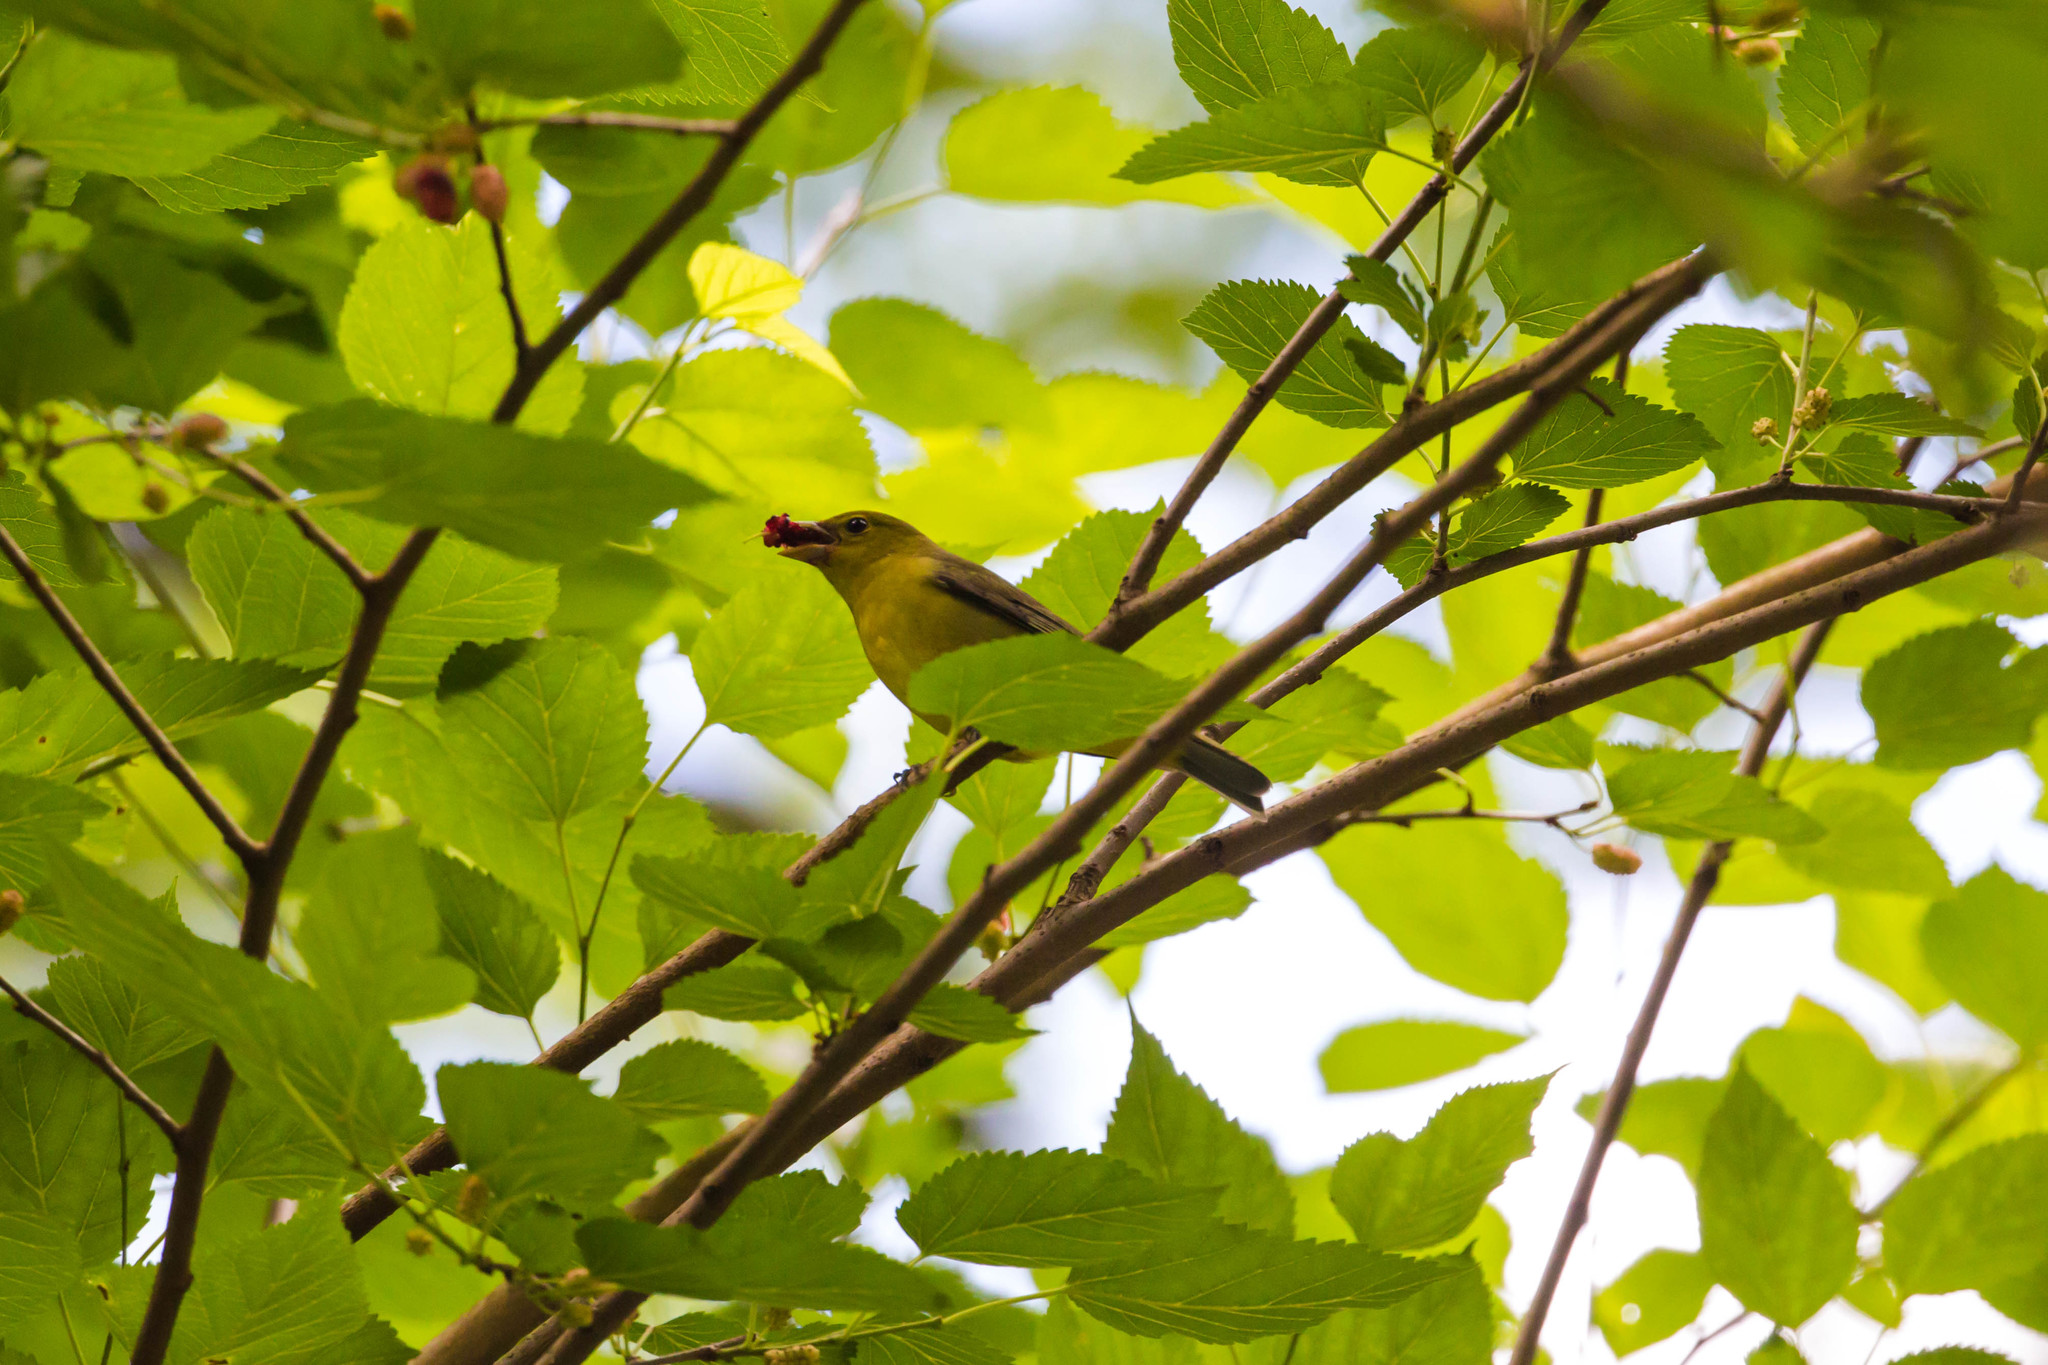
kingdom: Animalia
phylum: Chordata
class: Aves
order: Passeriformes
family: Cardinalidae
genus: Piranga
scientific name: Piranga olivacea
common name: Scarlet tanager
